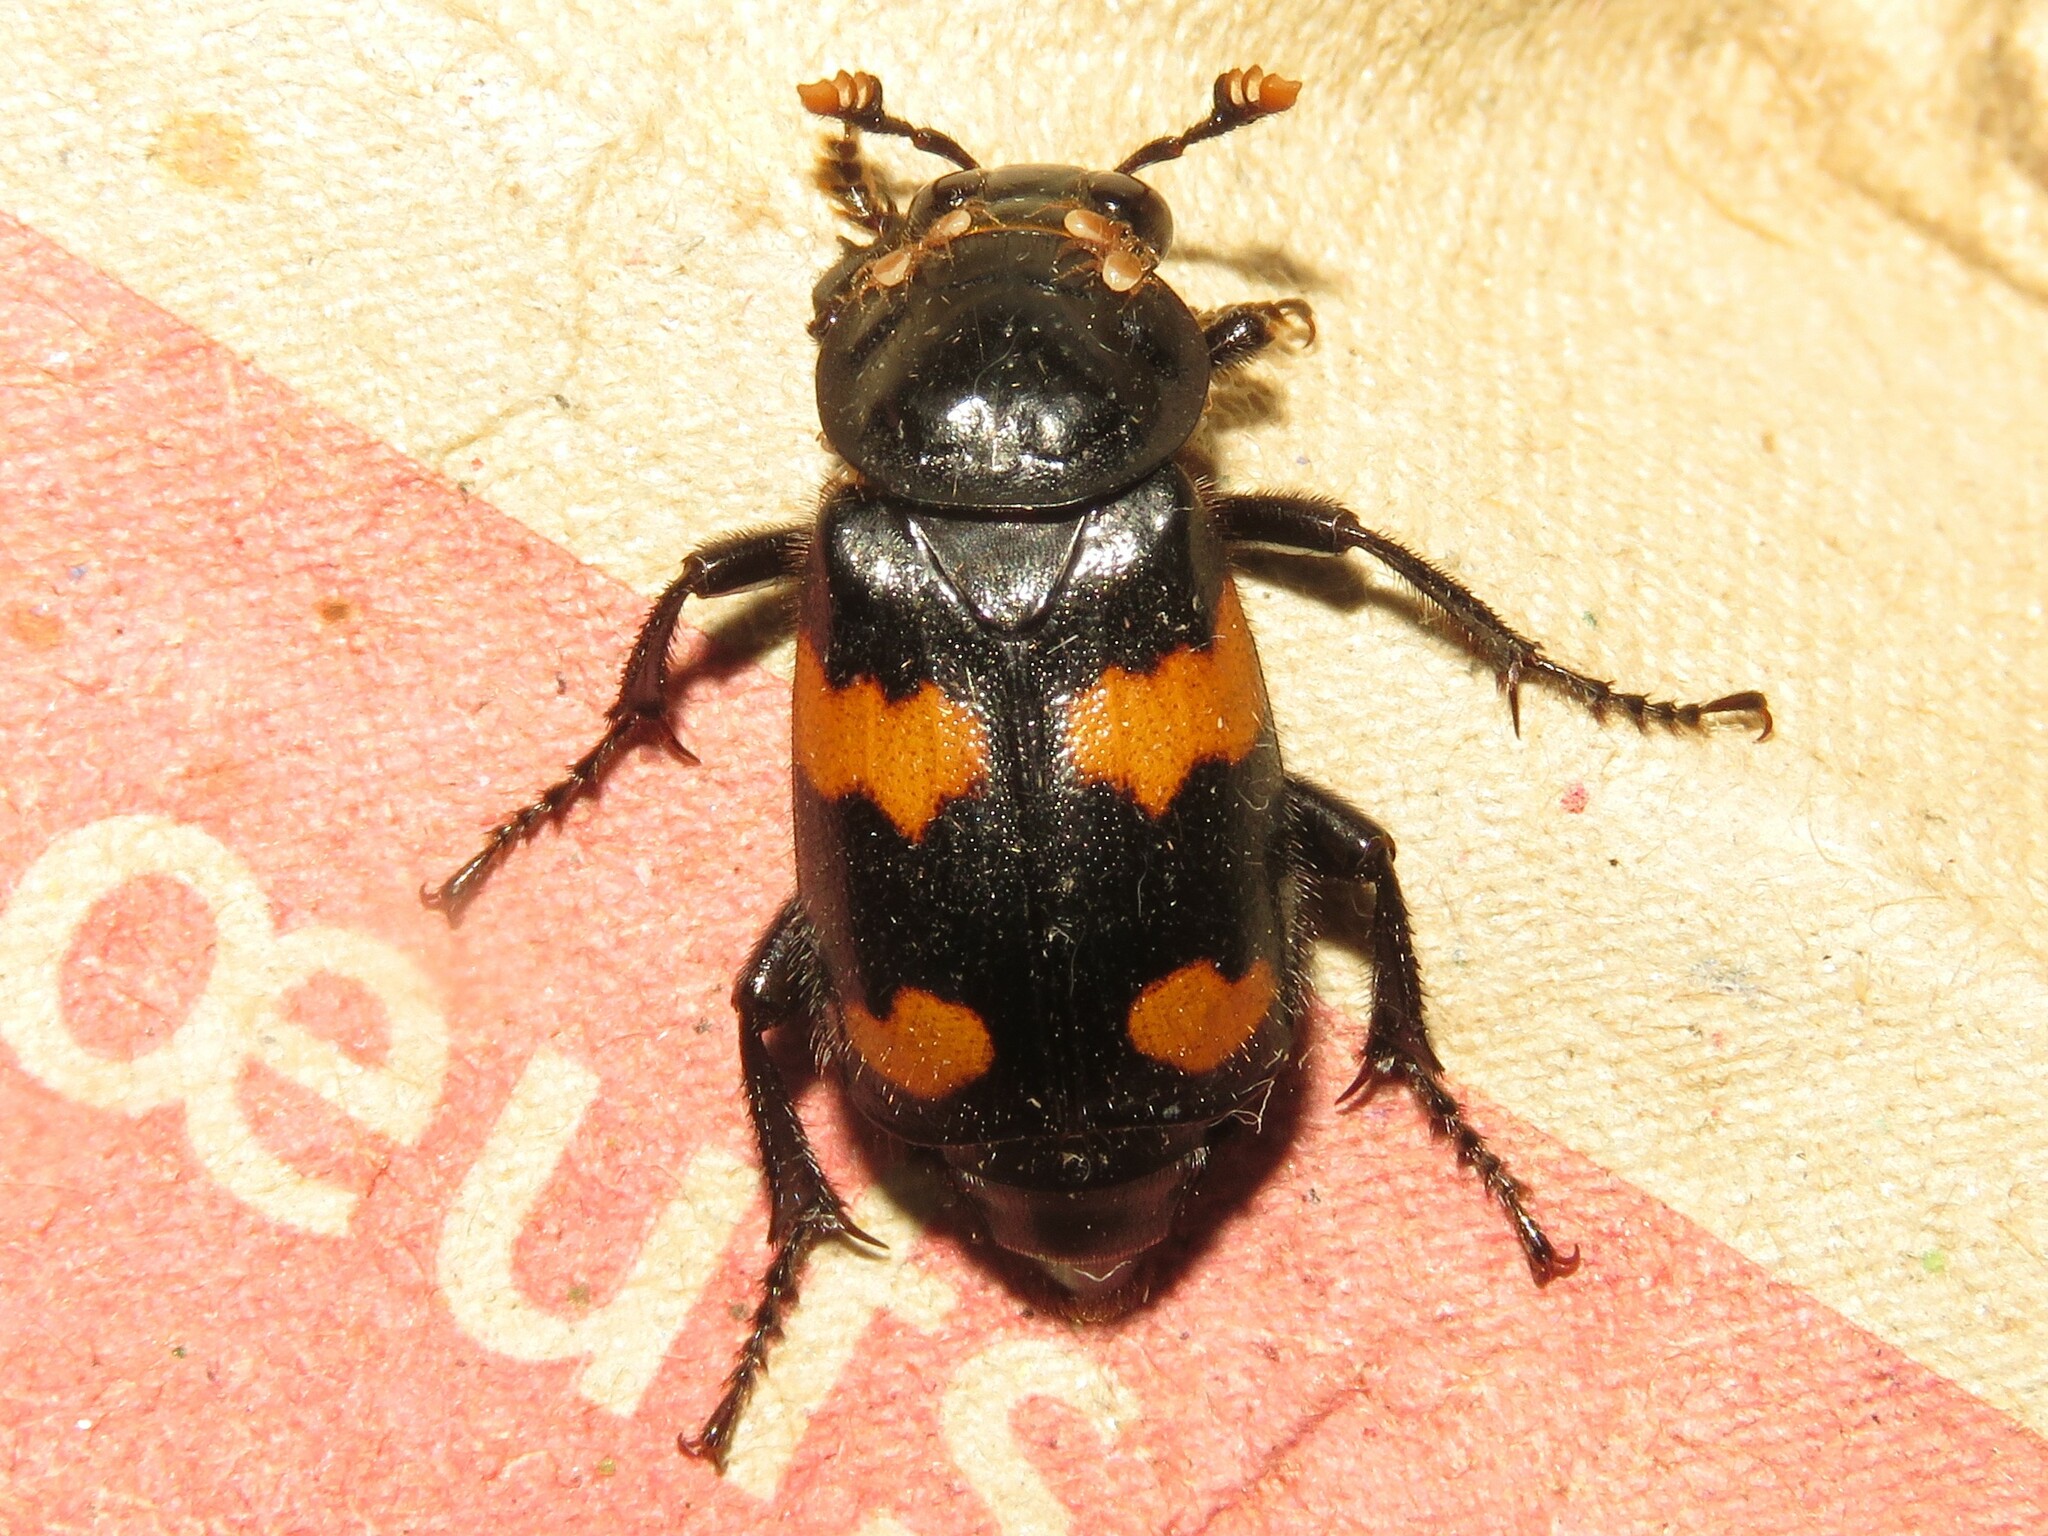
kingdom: Animalia
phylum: Arthropoda
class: Insecta
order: Coleoptera
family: Staphylinidae
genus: Nicrophorus
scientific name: Nicrophorus orbicollis
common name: Roundneck sexton beetle
